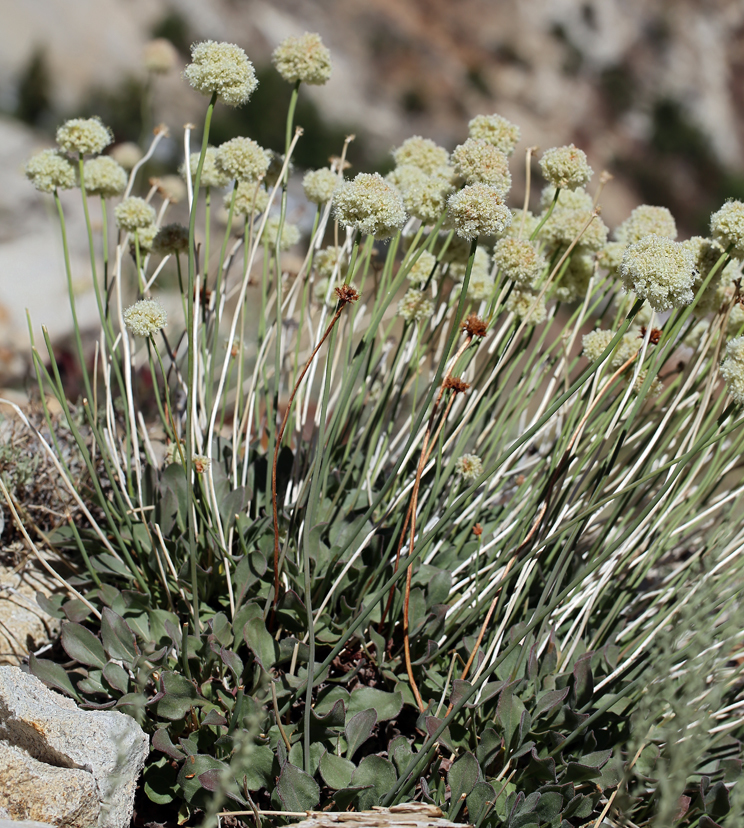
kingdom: Plantae
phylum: Tracheophyta
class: Magnoliopsida
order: Caryophyllales
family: Polygonaceae
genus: Eriogonum
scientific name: Eriogonum latens
